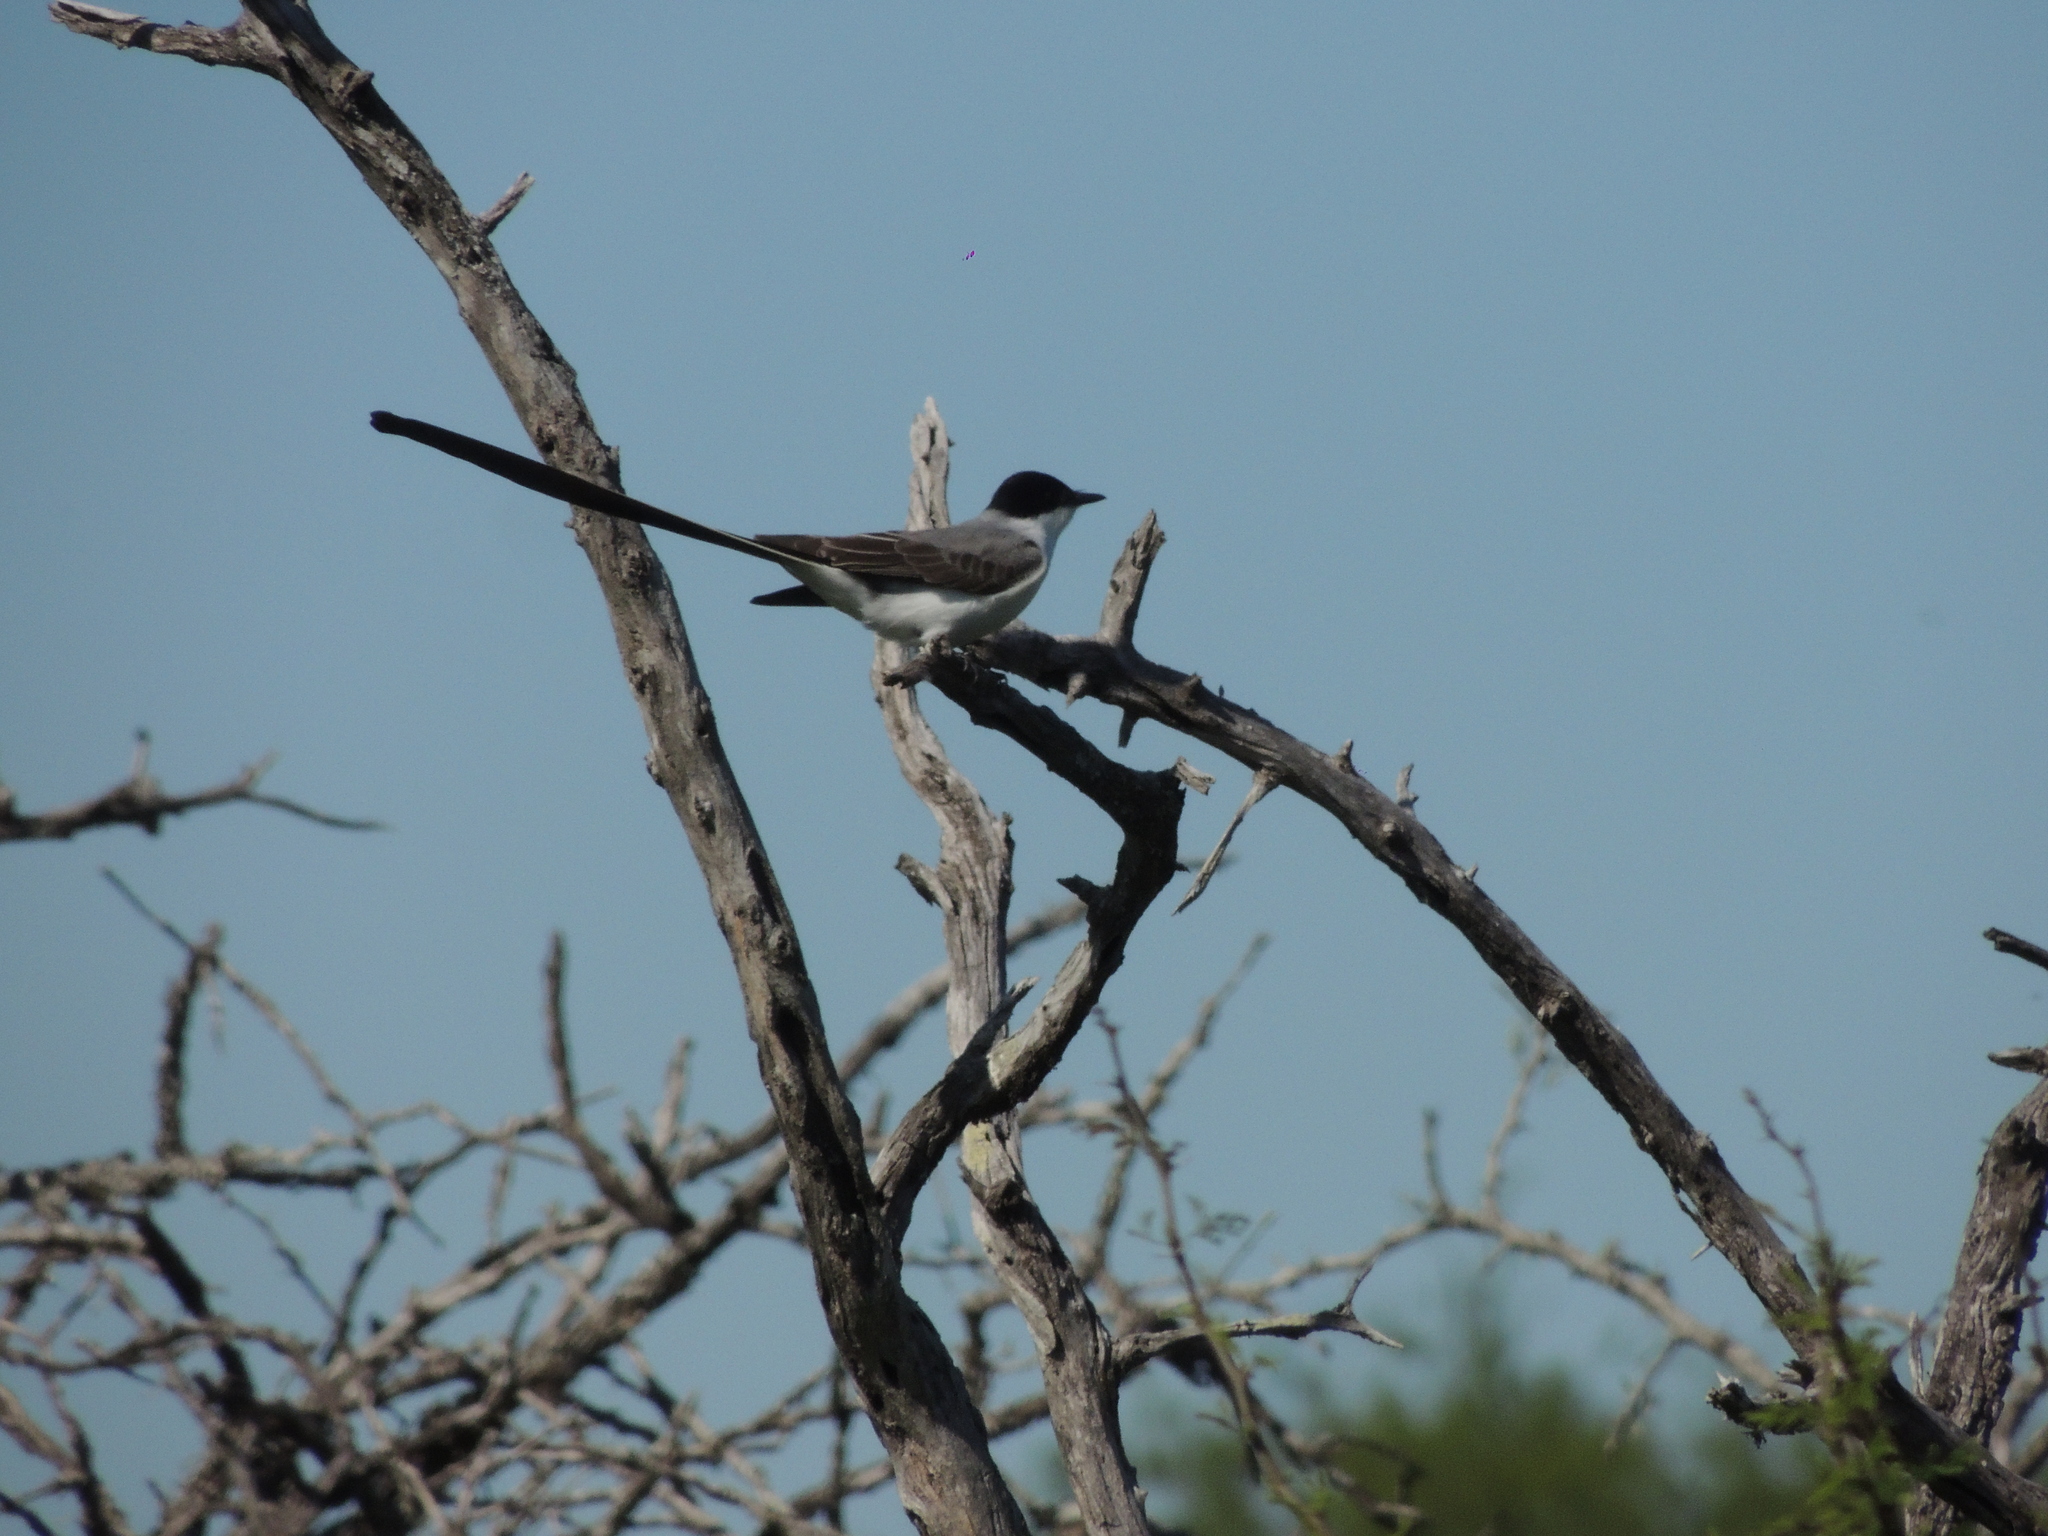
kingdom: Animalia
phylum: Chordata
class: Aves
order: Passeriformes
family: Tyrannidae
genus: Tyrannus
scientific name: Tyrannus savana
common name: Fork-tailed flycatcher
